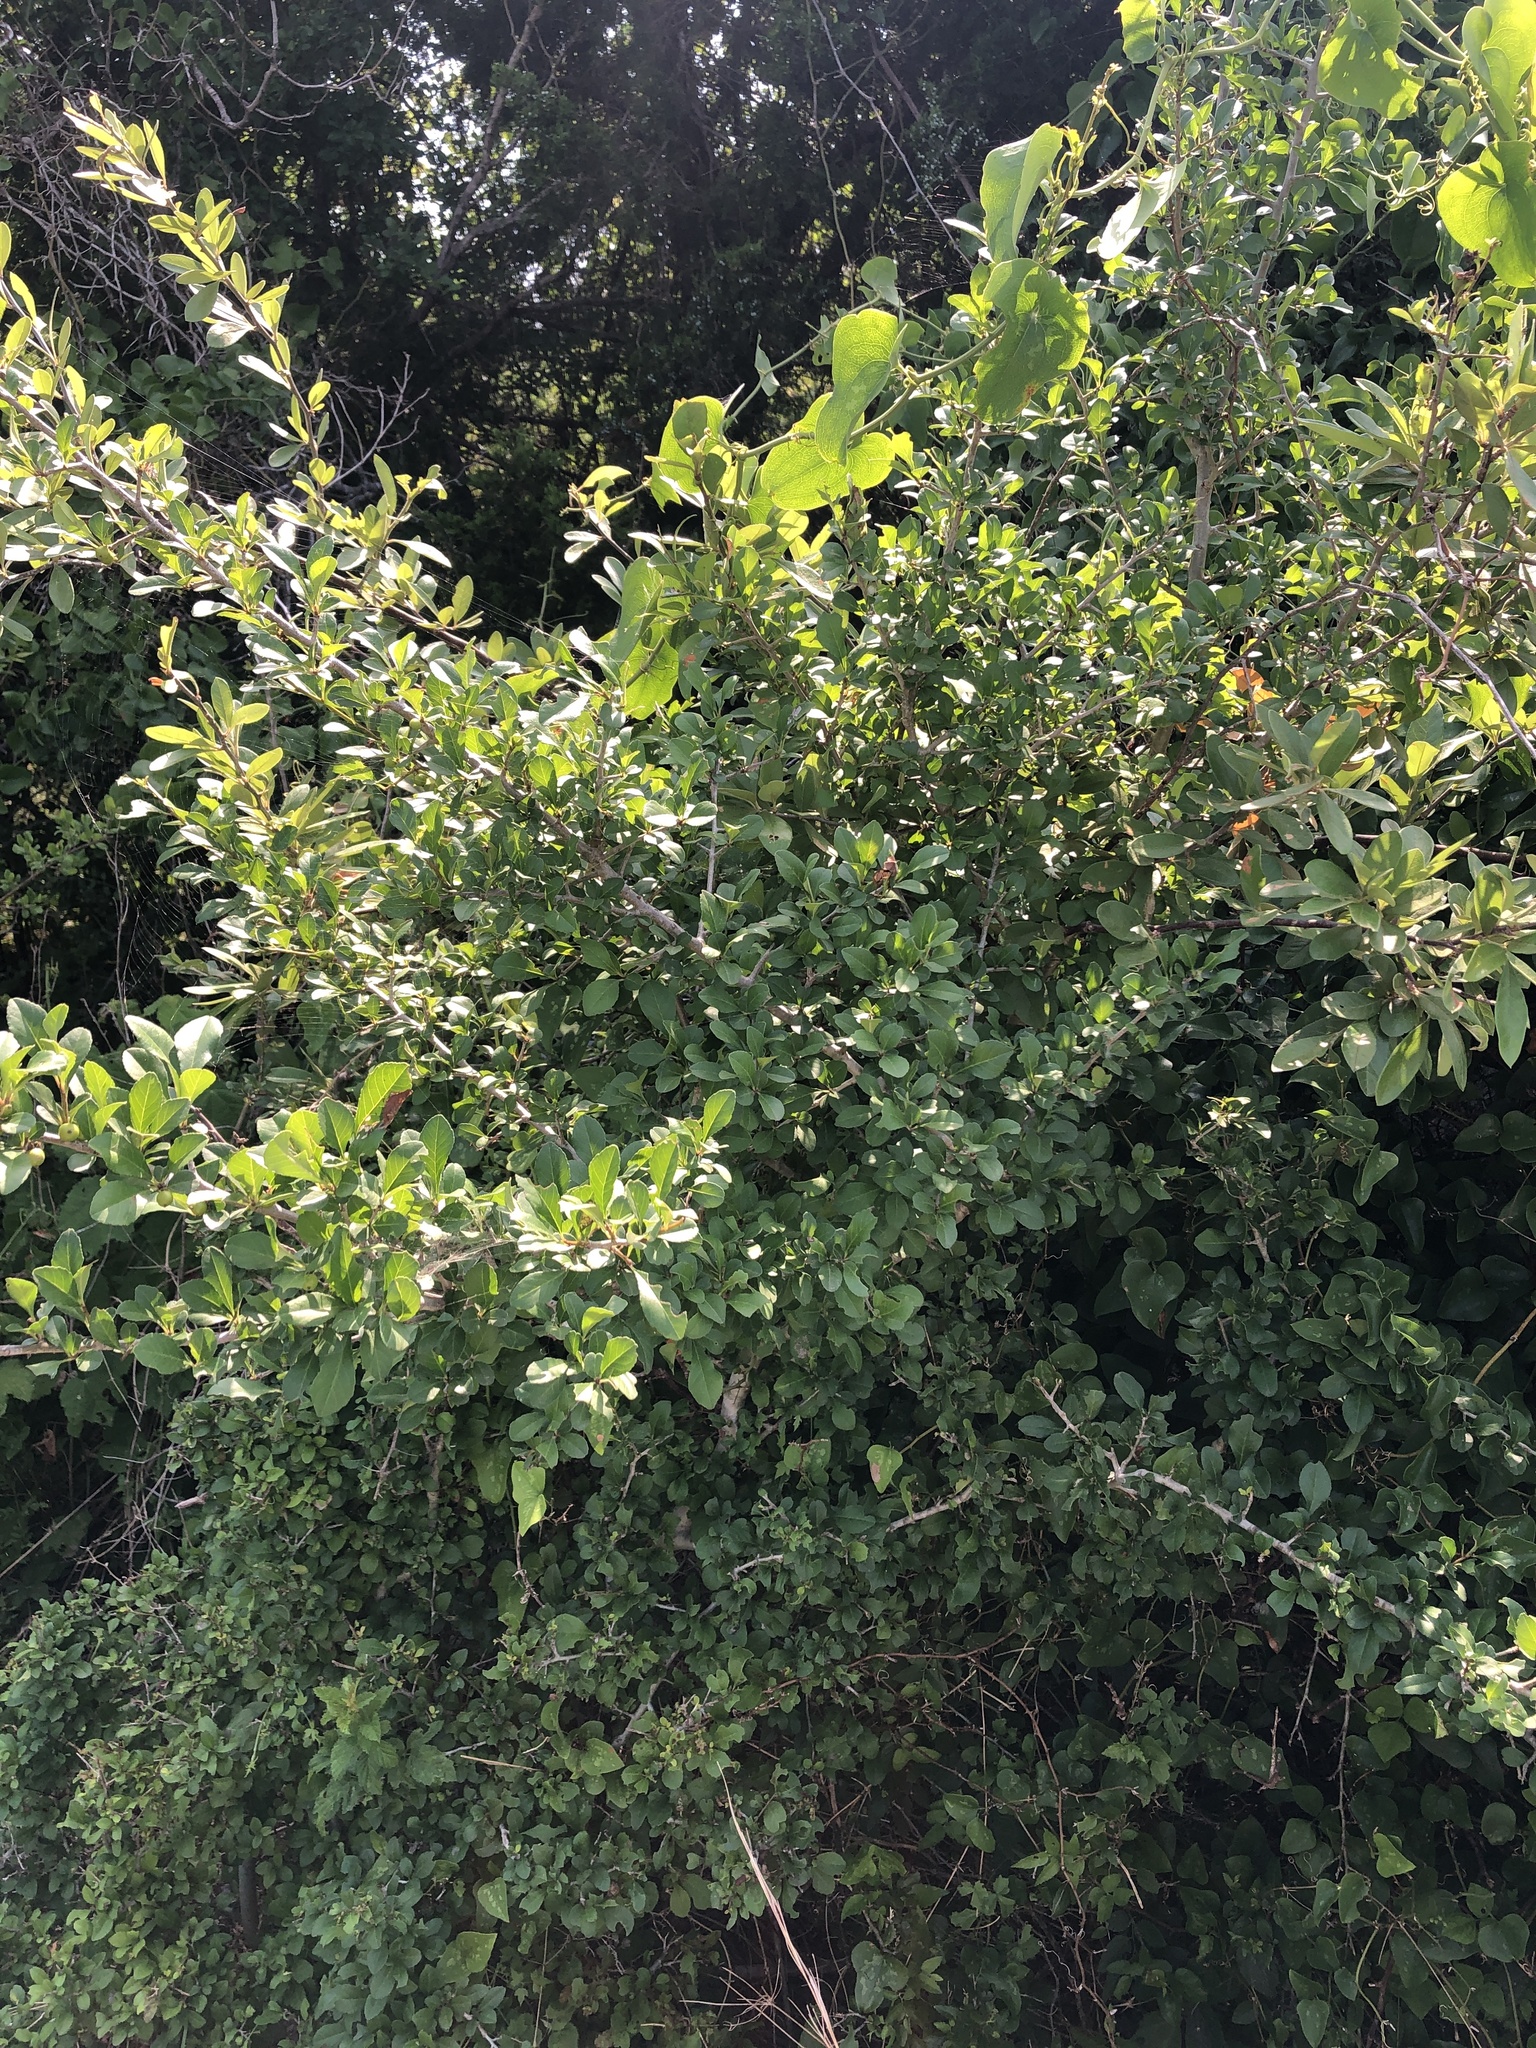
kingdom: Plantae
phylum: Tracheophyta
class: Magnoliopsida
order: Aquifoliales
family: Aquifoliaceae
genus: Ilex
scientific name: Ilex decidua
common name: Possum-haw
